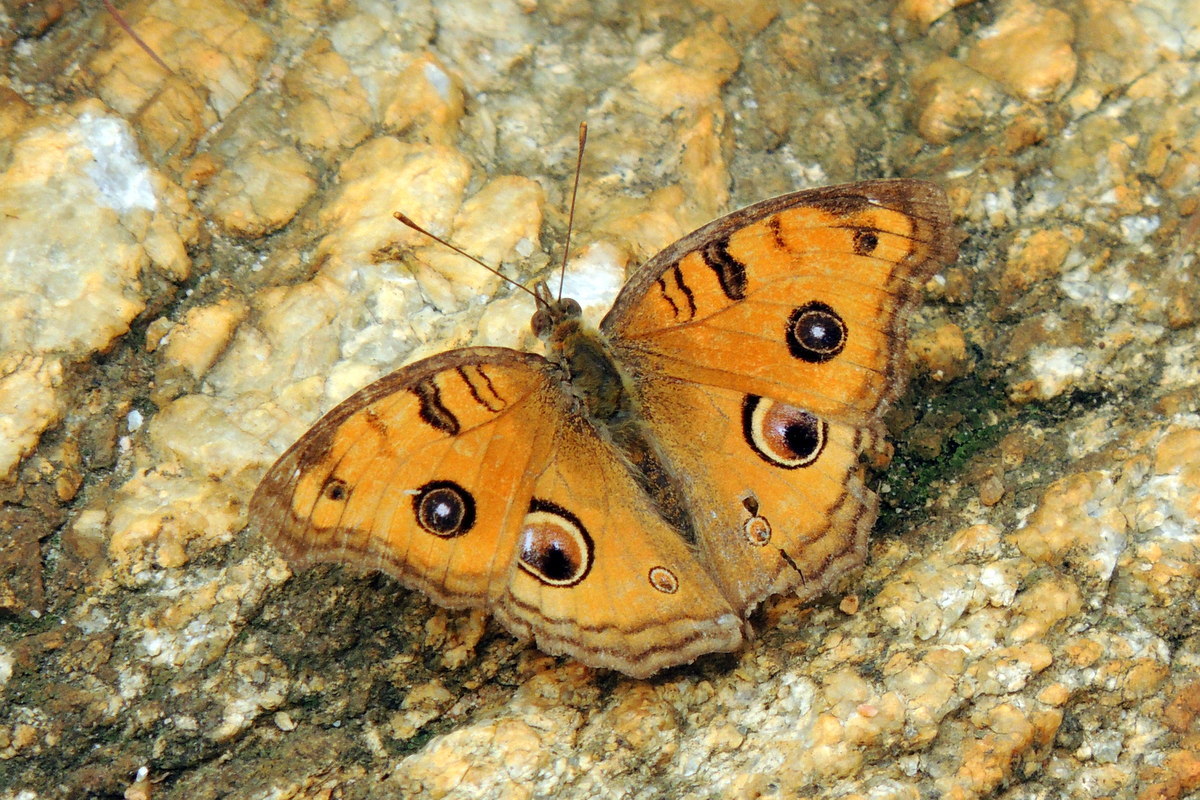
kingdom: Animalia
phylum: Arthropoda
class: Insecta
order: Lepidoptera
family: Nymphalidae
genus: Junonia
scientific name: Junonia almana
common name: Peacock pansy
